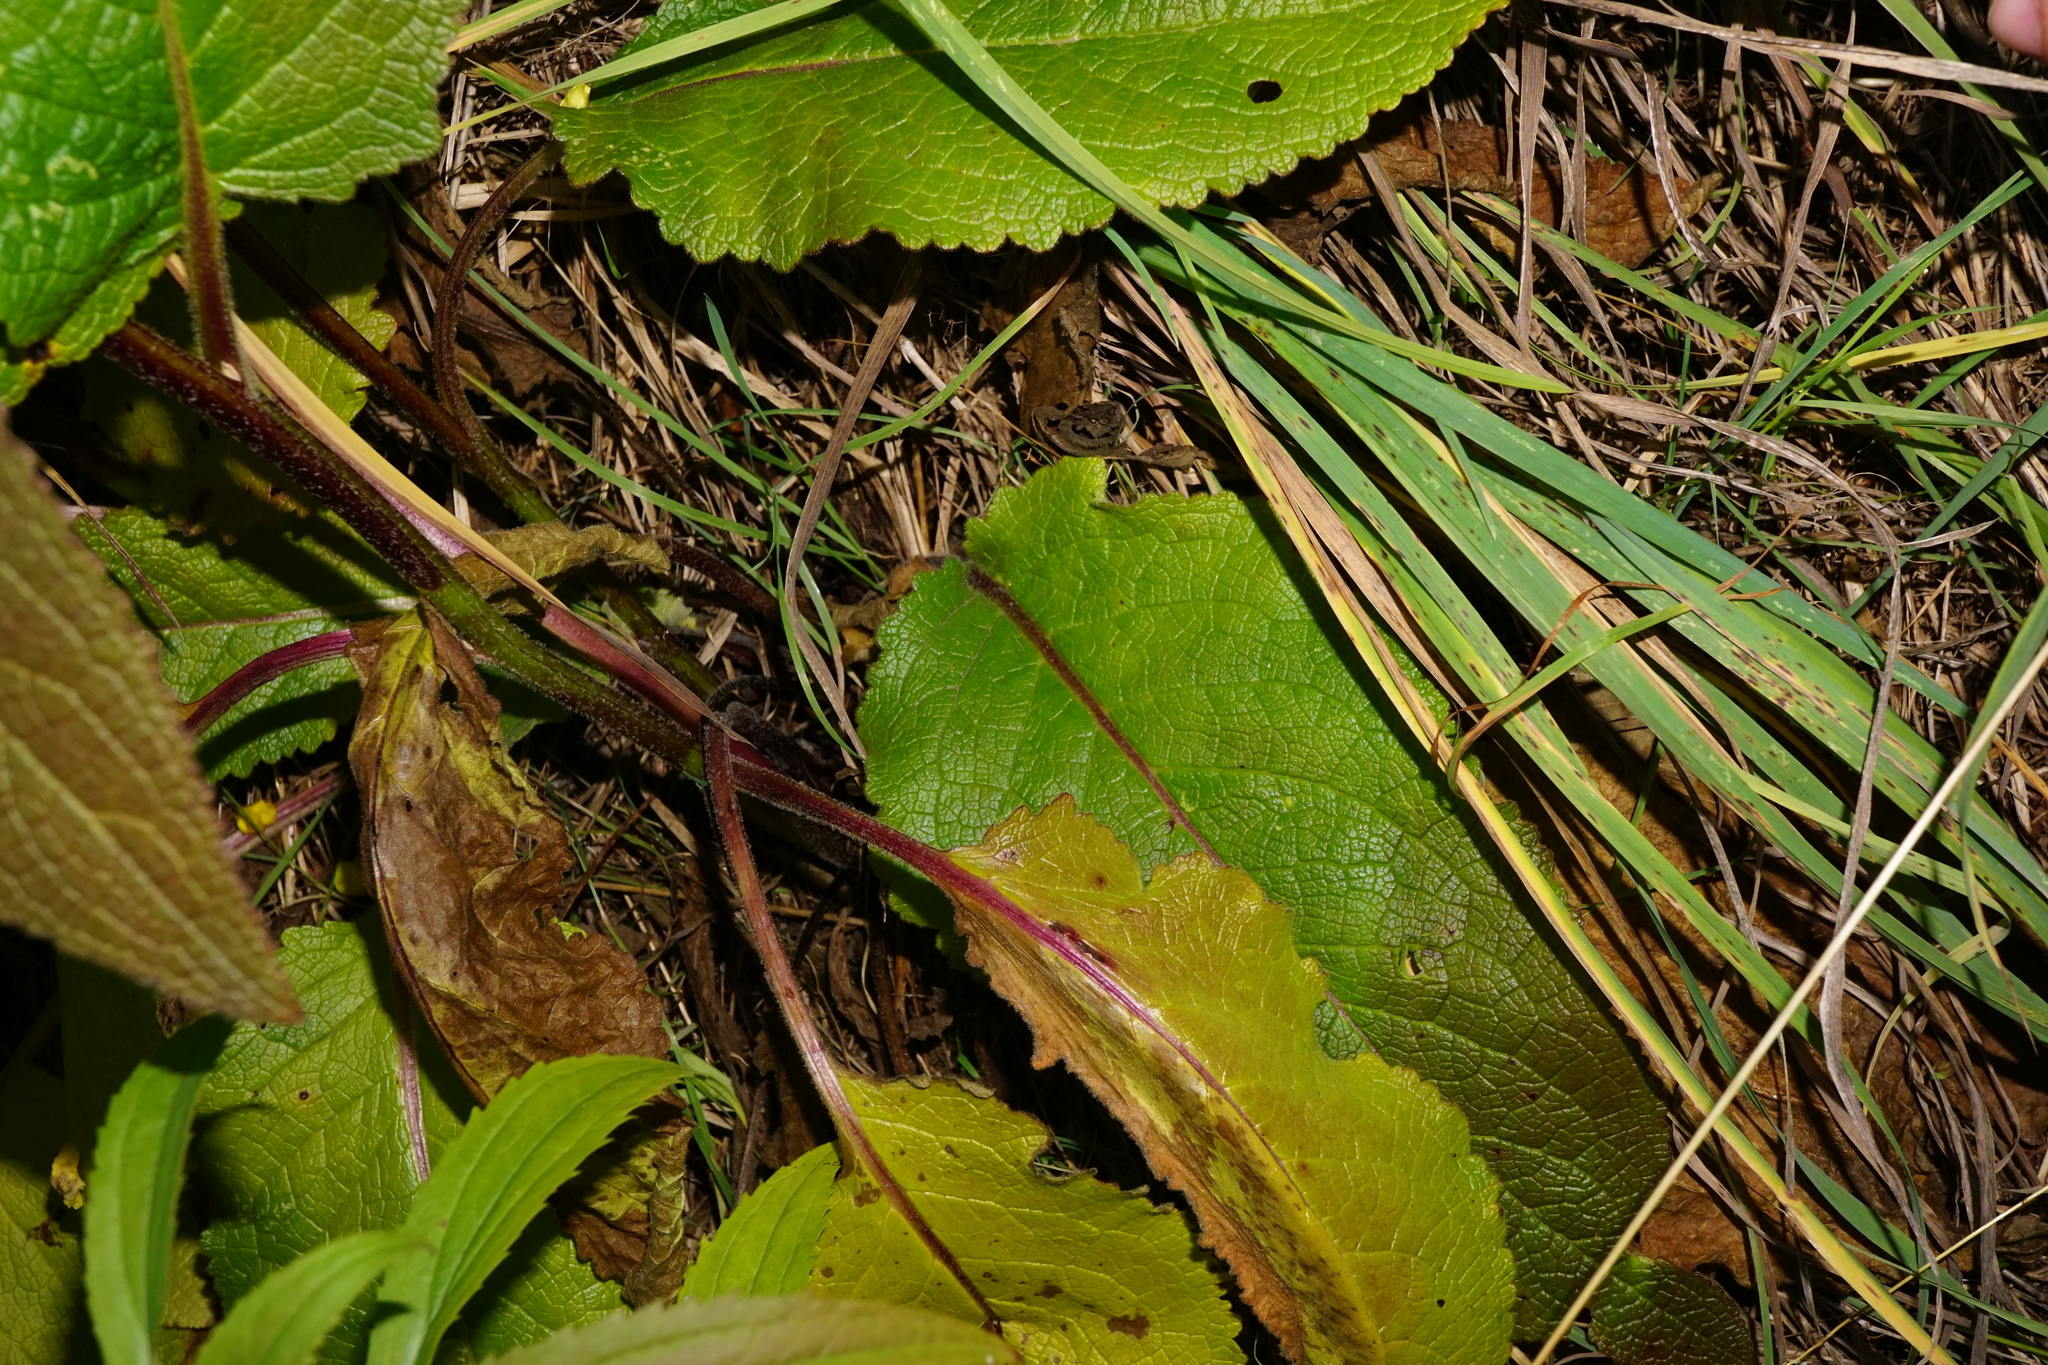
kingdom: Plantae
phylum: Tracheophyta
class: Magnoliopsida
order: Lamiales
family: Scrophulariaceae
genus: Verbascum
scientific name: Verbascum nigrum
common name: Dark mullein
